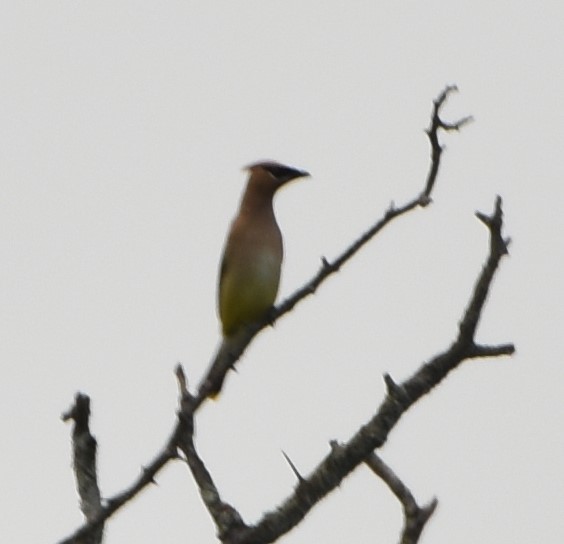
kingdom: Animalia
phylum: Chordata
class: Aves
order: Passeriformes
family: Bombycillidae
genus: Bombycilla
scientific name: Bombycilla cedrorum
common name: Cedar waxwing
